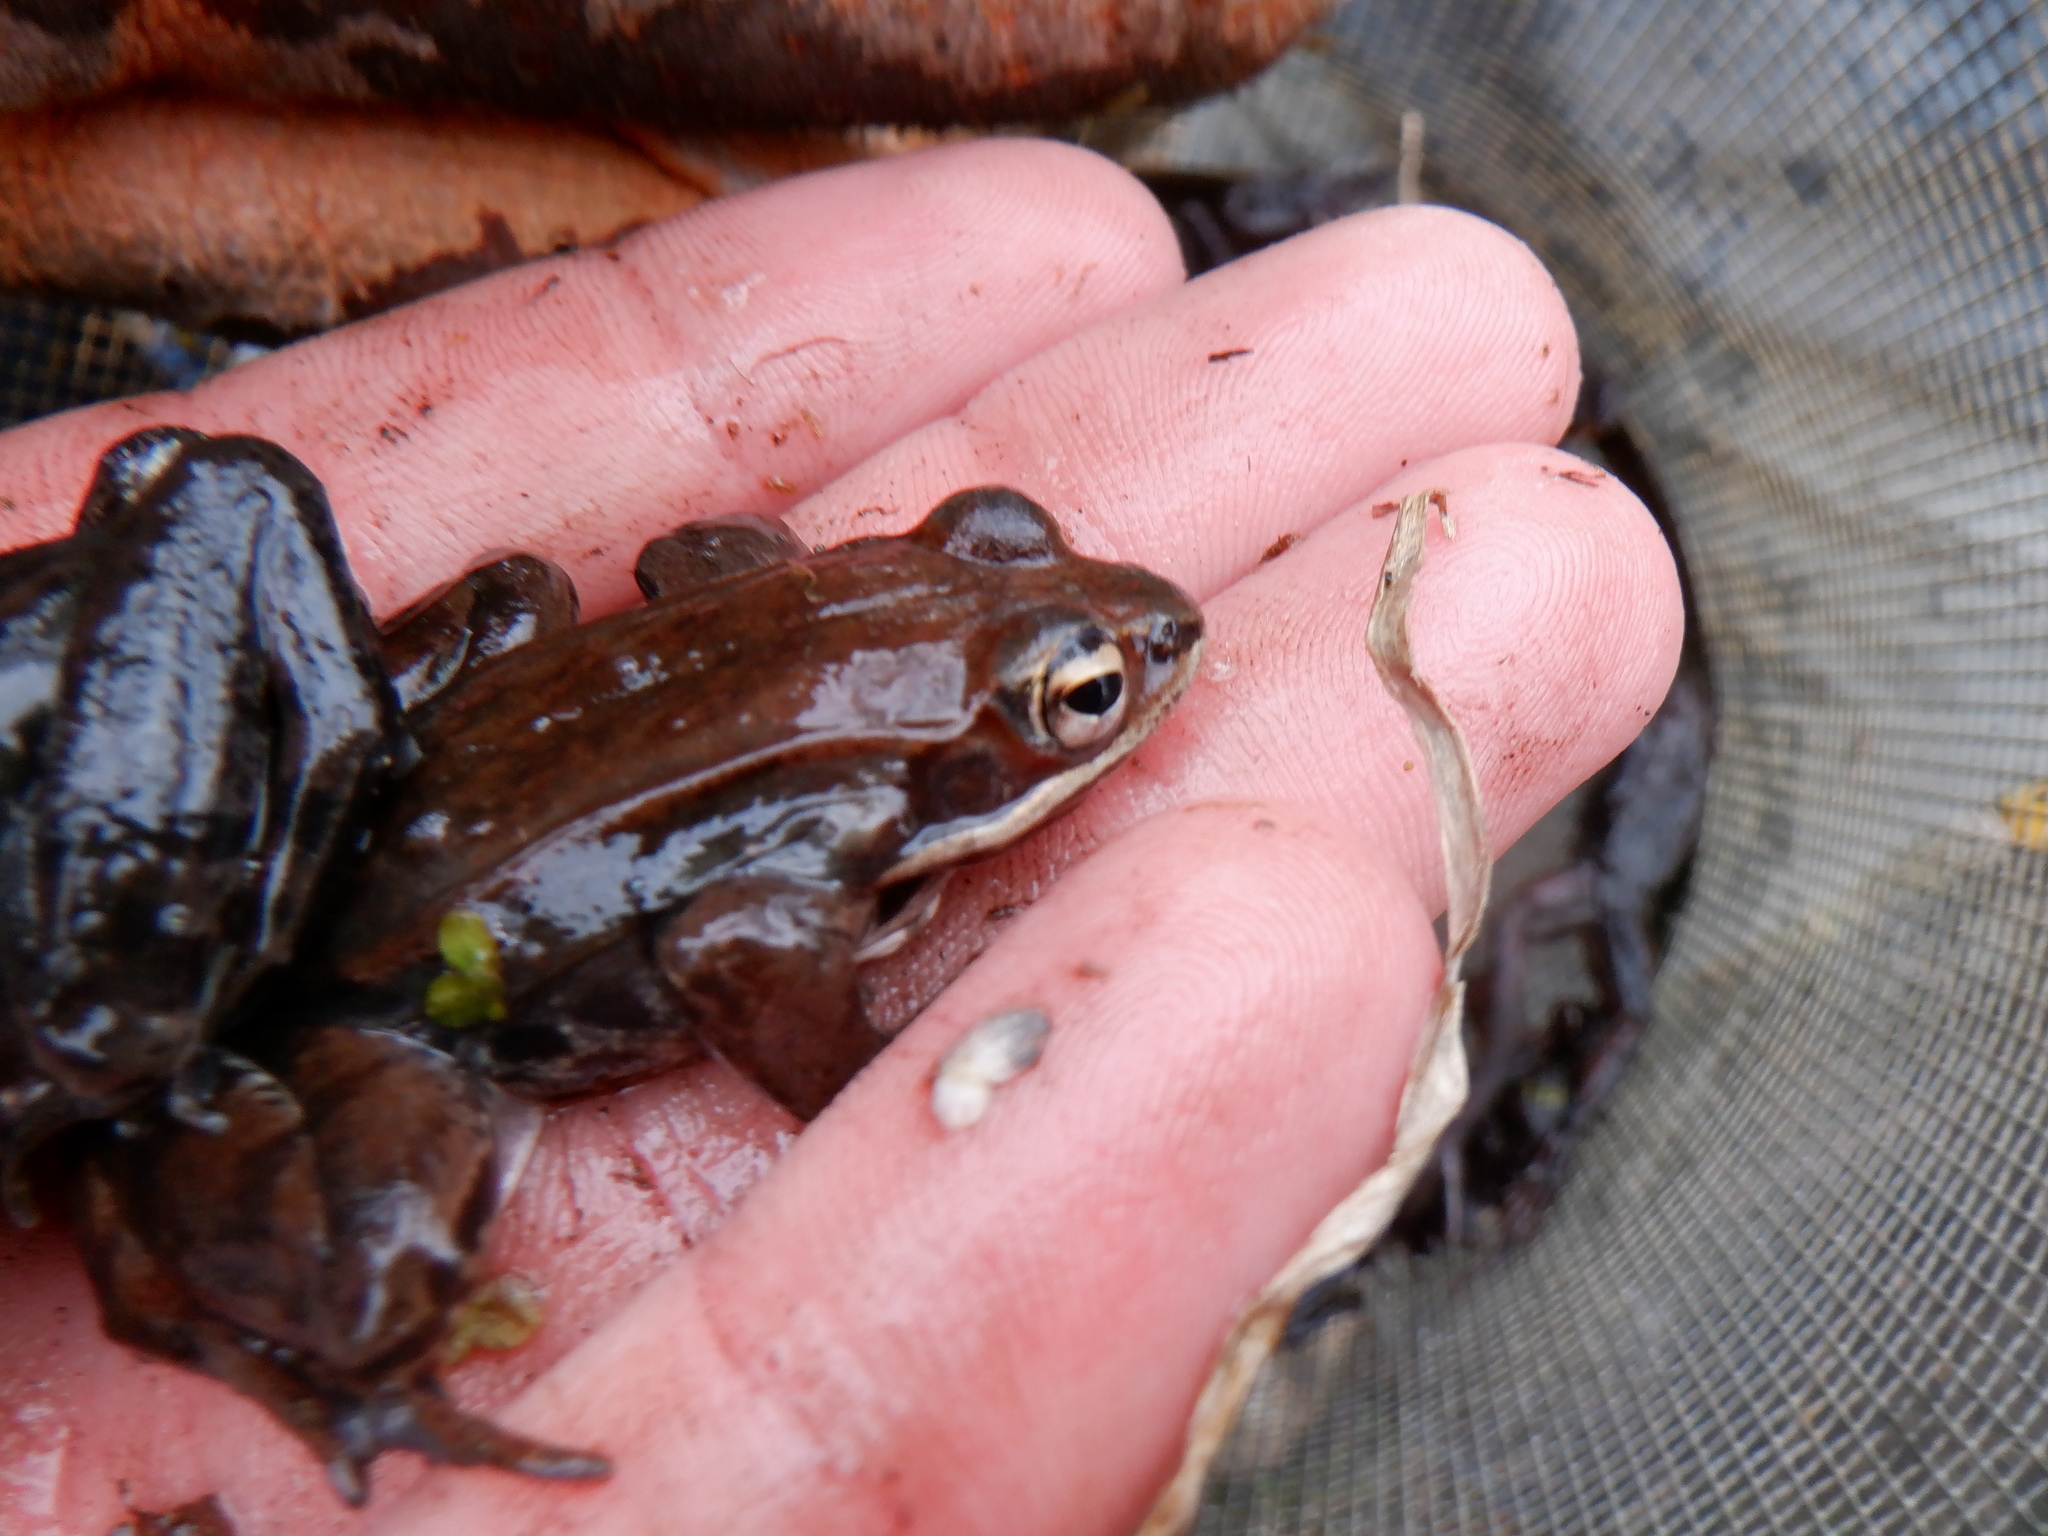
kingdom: Animalia
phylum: Chordata
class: Amphibia
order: Anura
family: Ranidae
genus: Lithobates
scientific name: Lithobates sylvaticus
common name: Wood frog
